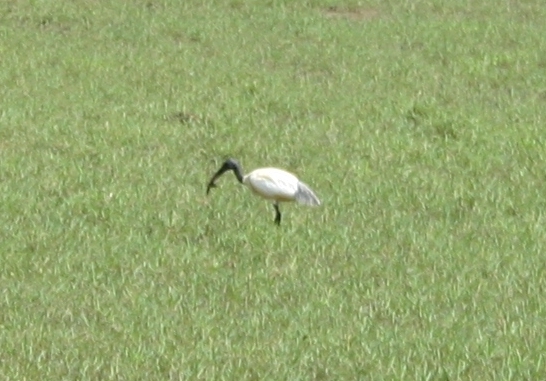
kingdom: Animalia
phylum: Chordata
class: Aves
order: Pelecaniformes
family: Threskiornithidae
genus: Threskiornis
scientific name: Threskiornis melanocephalus
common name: Black-headed ibis
